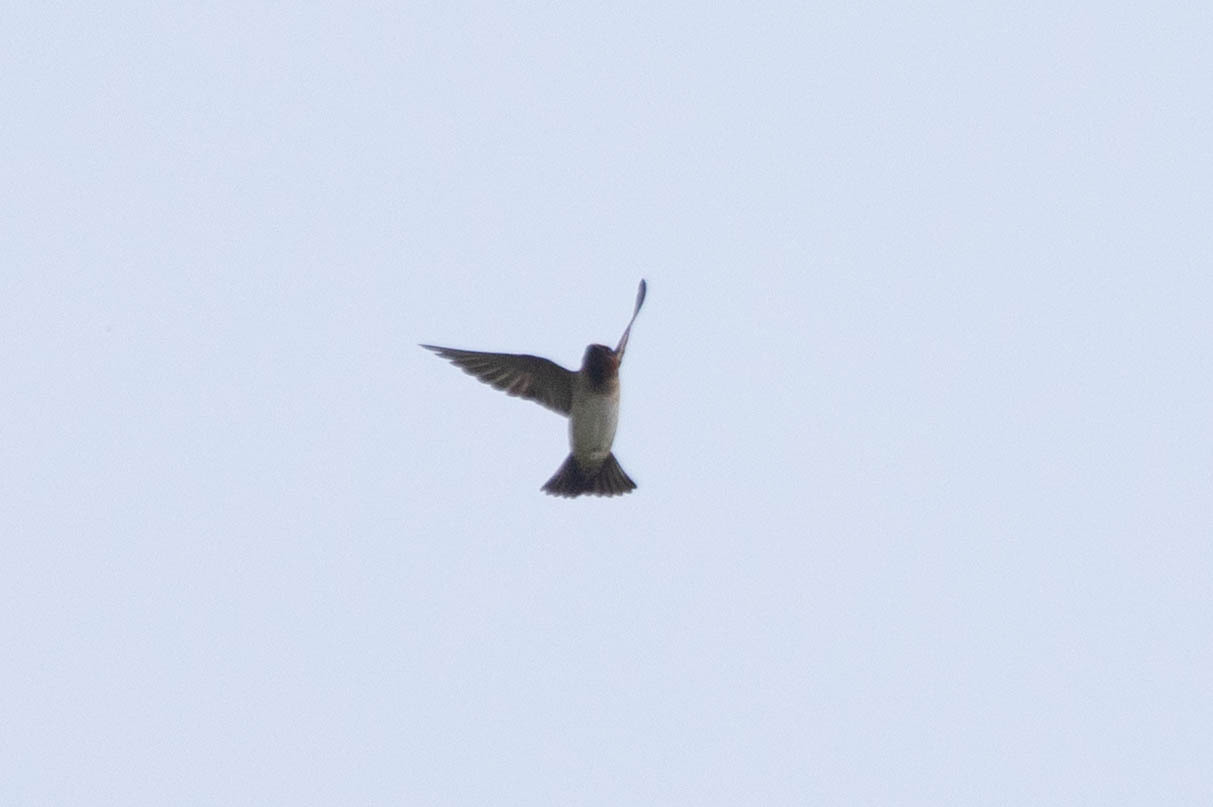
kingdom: Animalia
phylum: Chordata
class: Aves
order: Passeriformes
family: Hirundinidae
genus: Petrochelidon
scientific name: Petrochelidon pyrrhonota
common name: American cliff swallow
